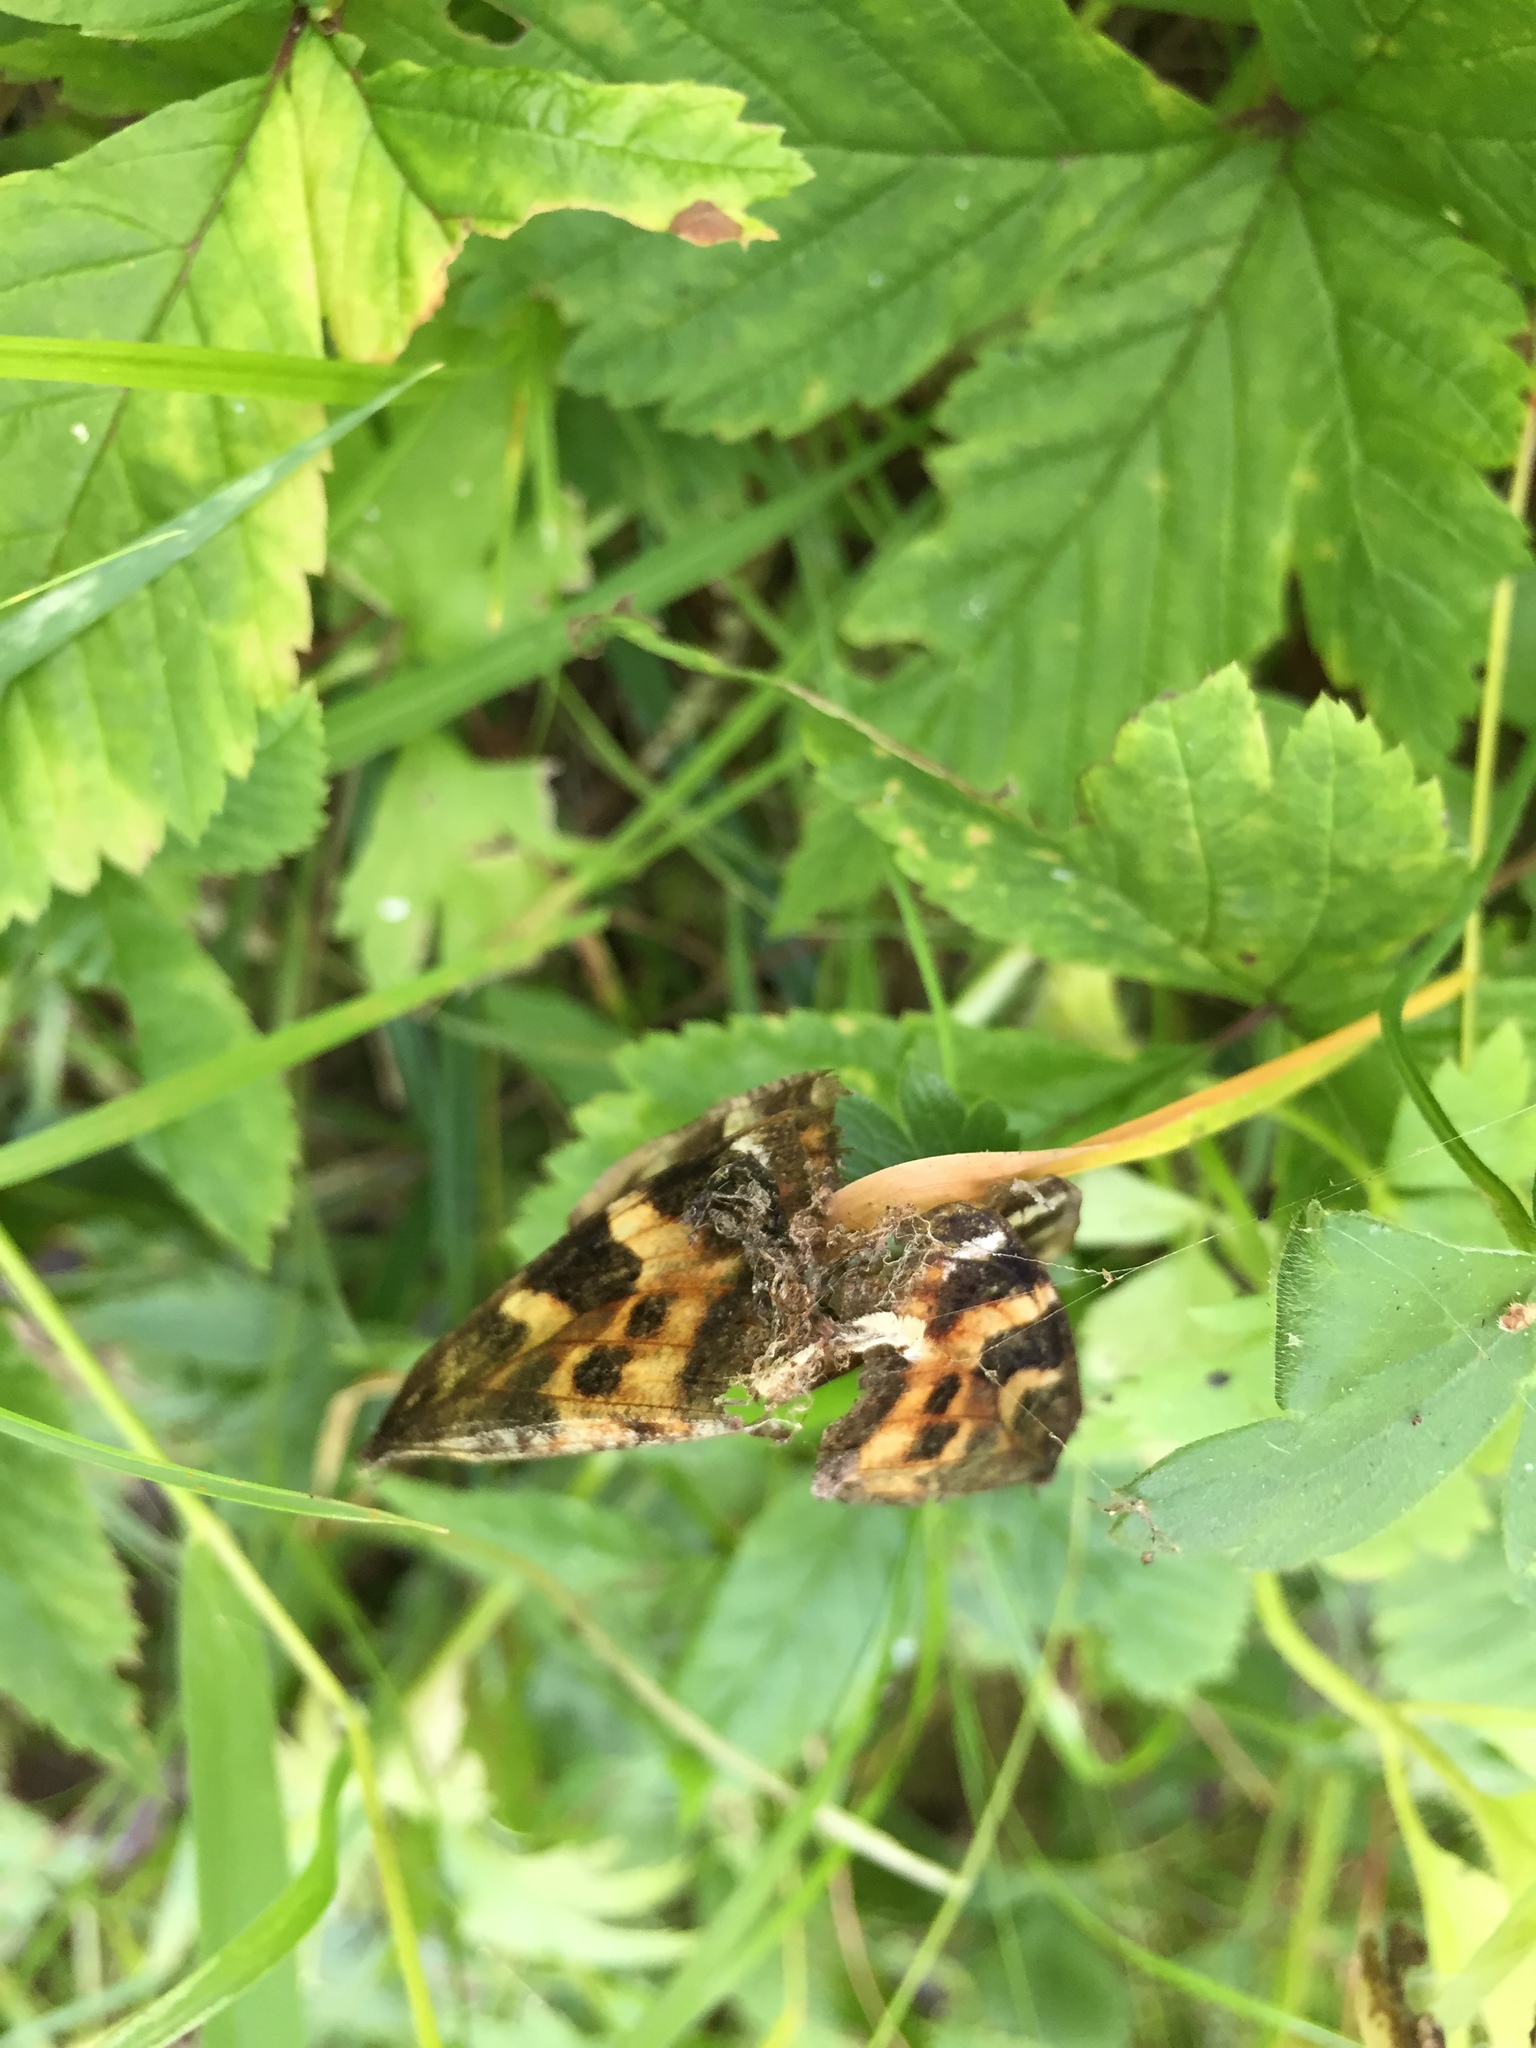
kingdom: Animalia
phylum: Arthropoda
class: Insecta
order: Lepidoptera
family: Nymphalidae
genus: Polygonia
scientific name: Polygonia vaualbum
